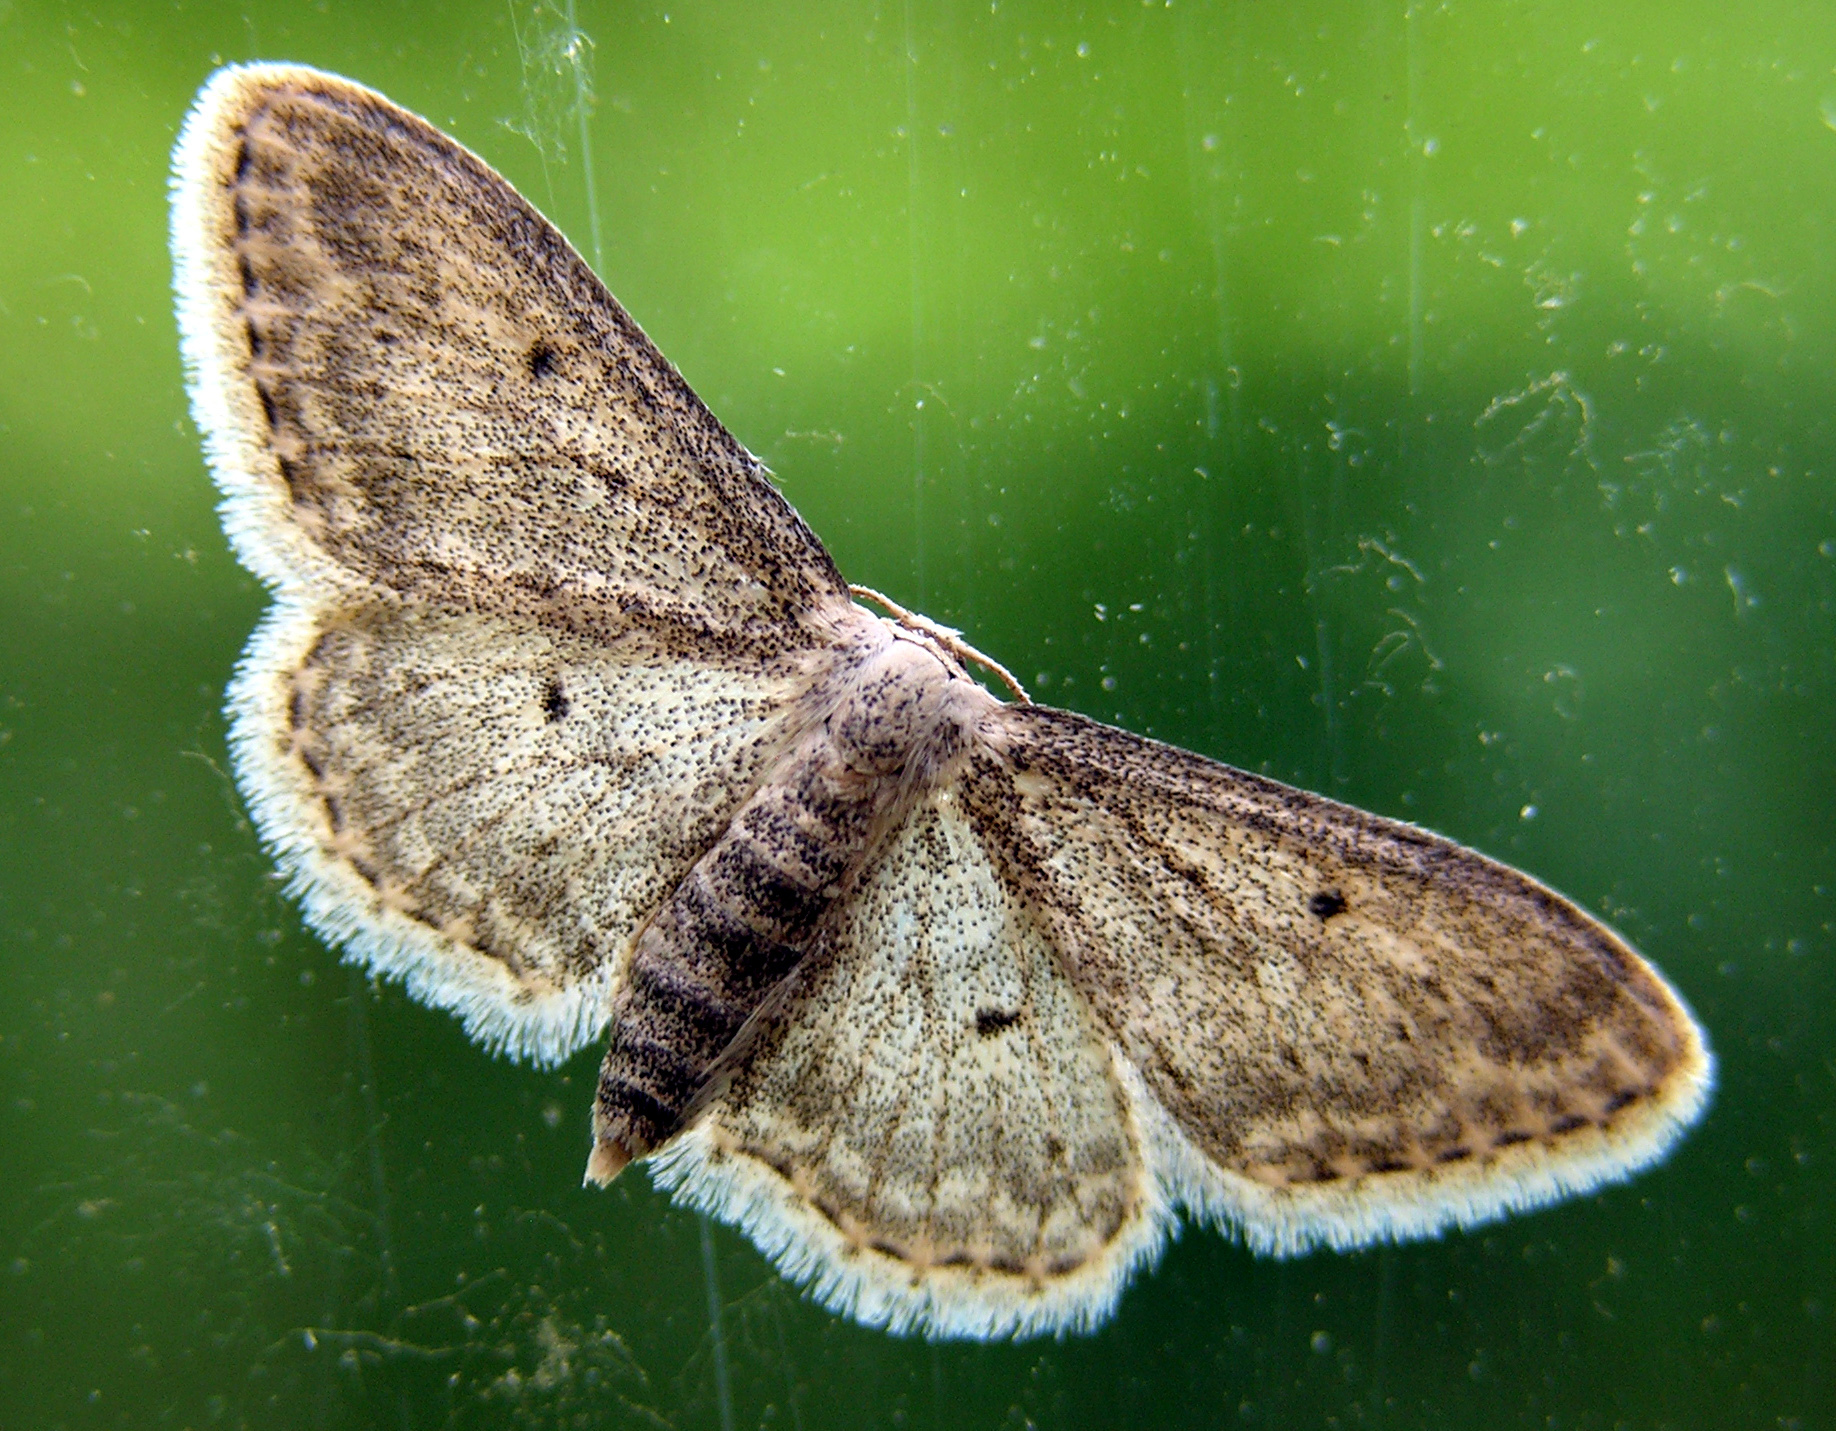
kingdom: Animalia
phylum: Arthropoda
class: Insecta
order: Lepidoptera
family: Geometridae
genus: Idaea
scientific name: Idaea seriata
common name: Small dusty wave
